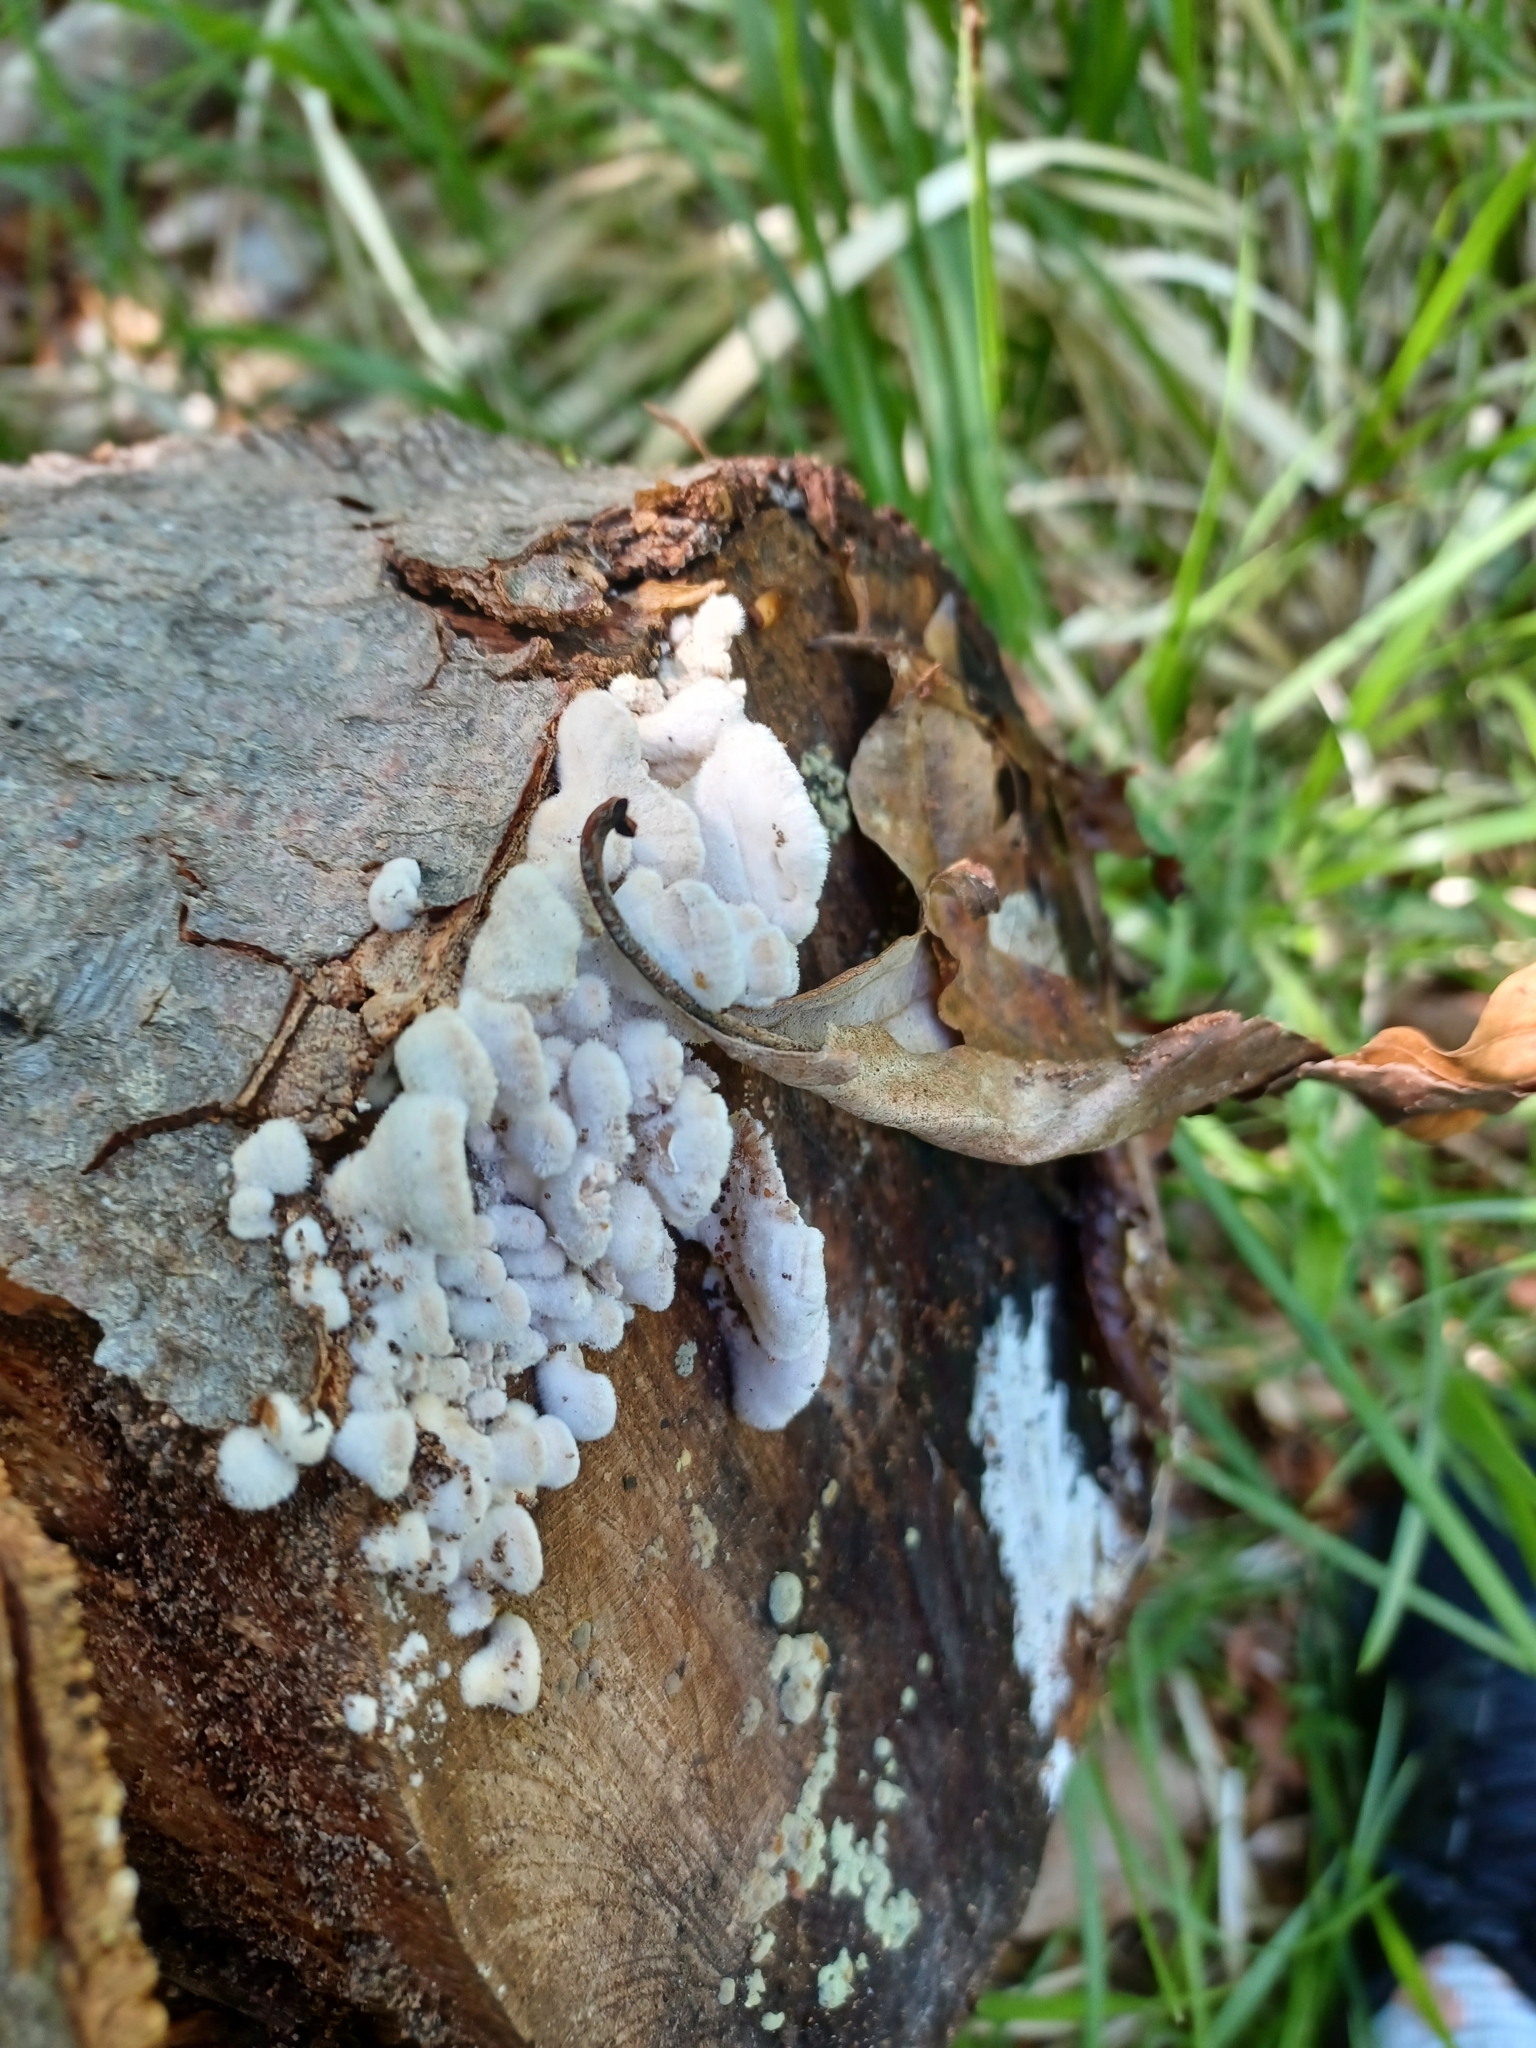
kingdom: Fungi
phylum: Basidiomycota
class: Agaricomycetes
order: Agaricales
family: Schizophyllaceae
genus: Schizophyllum
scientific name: Schizophyllum commune
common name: Common porecrust
